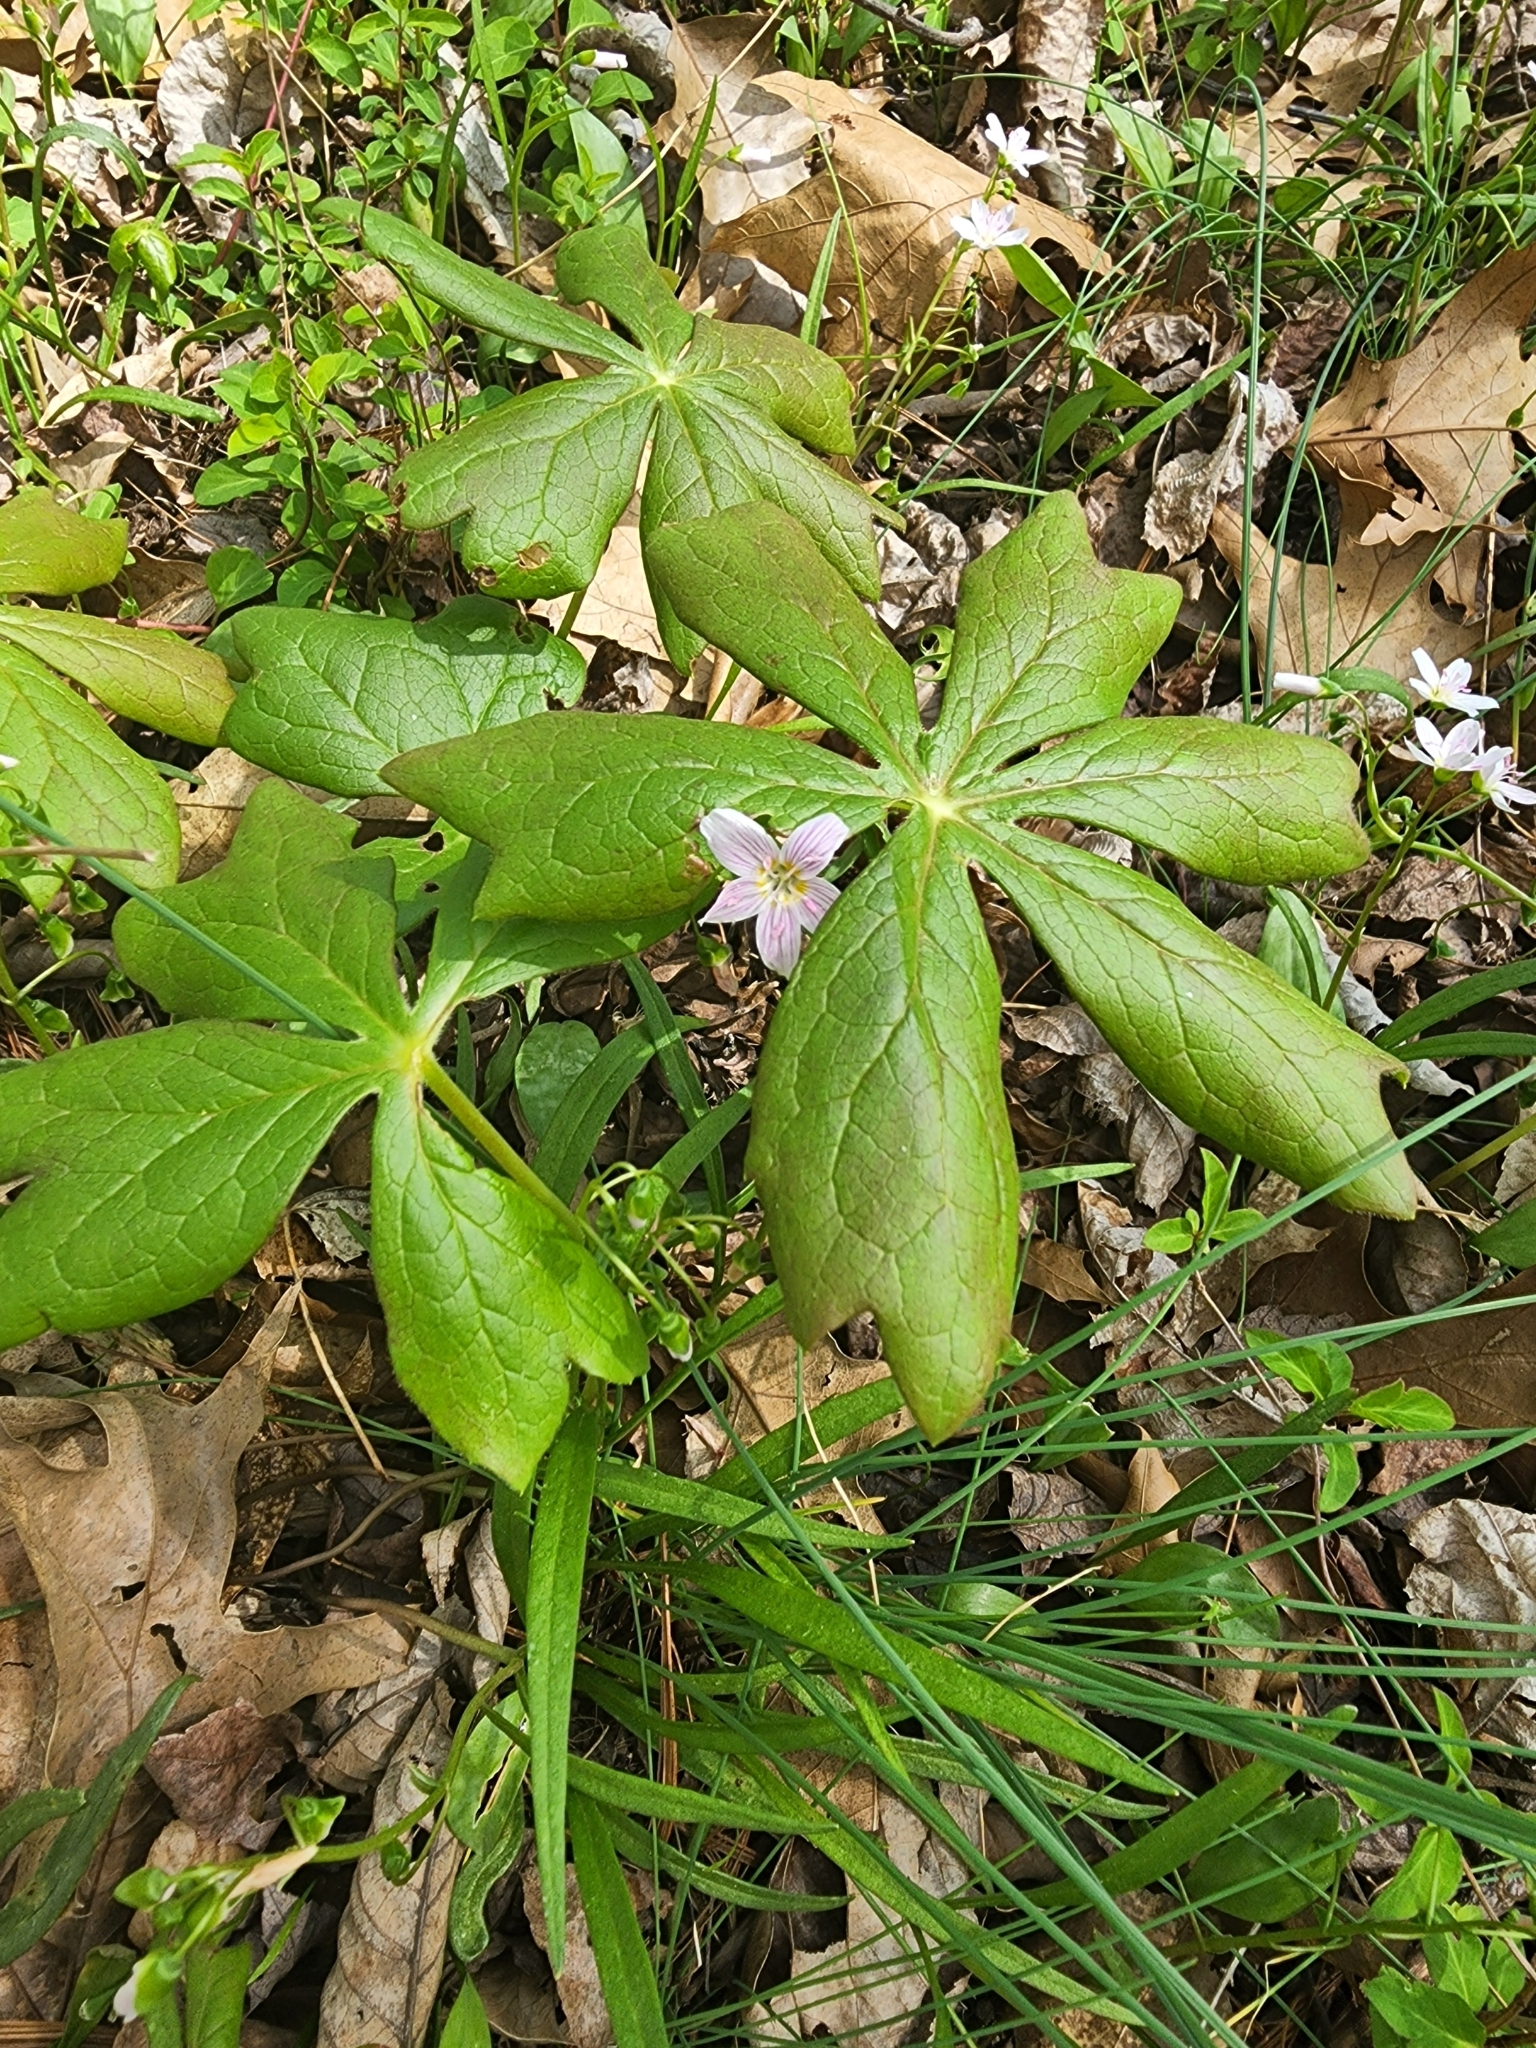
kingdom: Plantae
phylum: Tracheophyta
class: Magnoliopsida
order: Ranunculales
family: Berberidaceae
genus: Podophyllum
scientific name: Podophyllum peltatum
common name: Wild mandrake
